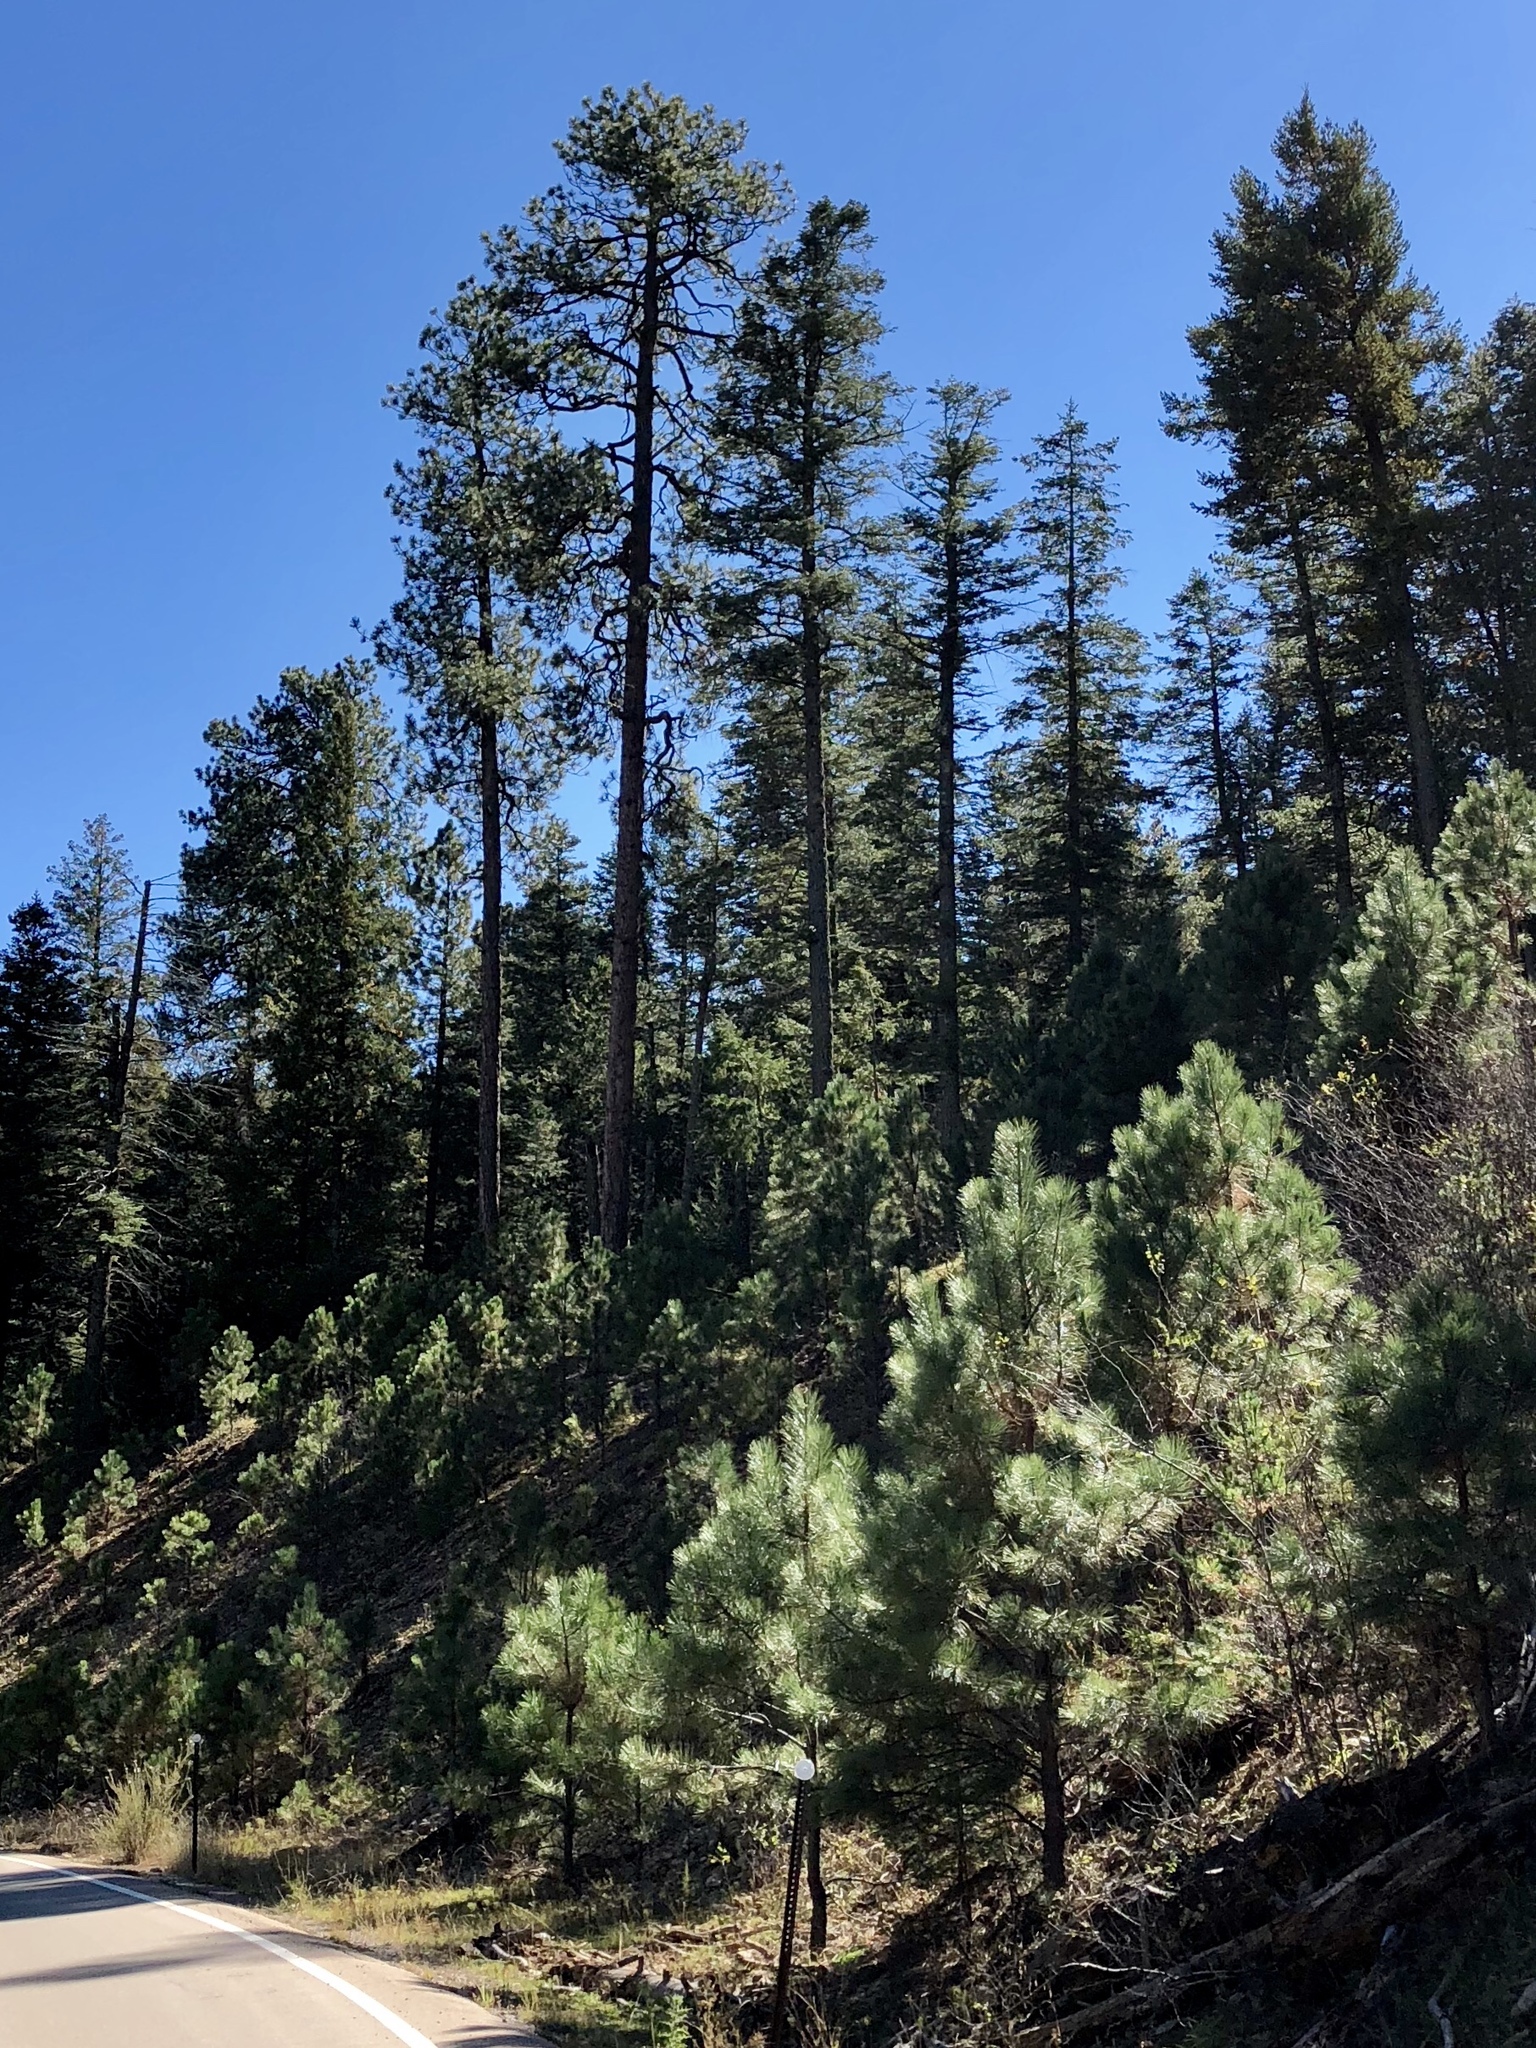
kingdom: Plantae
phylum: Tracheophyta
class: Pinopsida
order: Pinales
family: Pinaceae
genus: Pinus
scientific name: Pinus ponderosa
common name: Western yellow-pine
